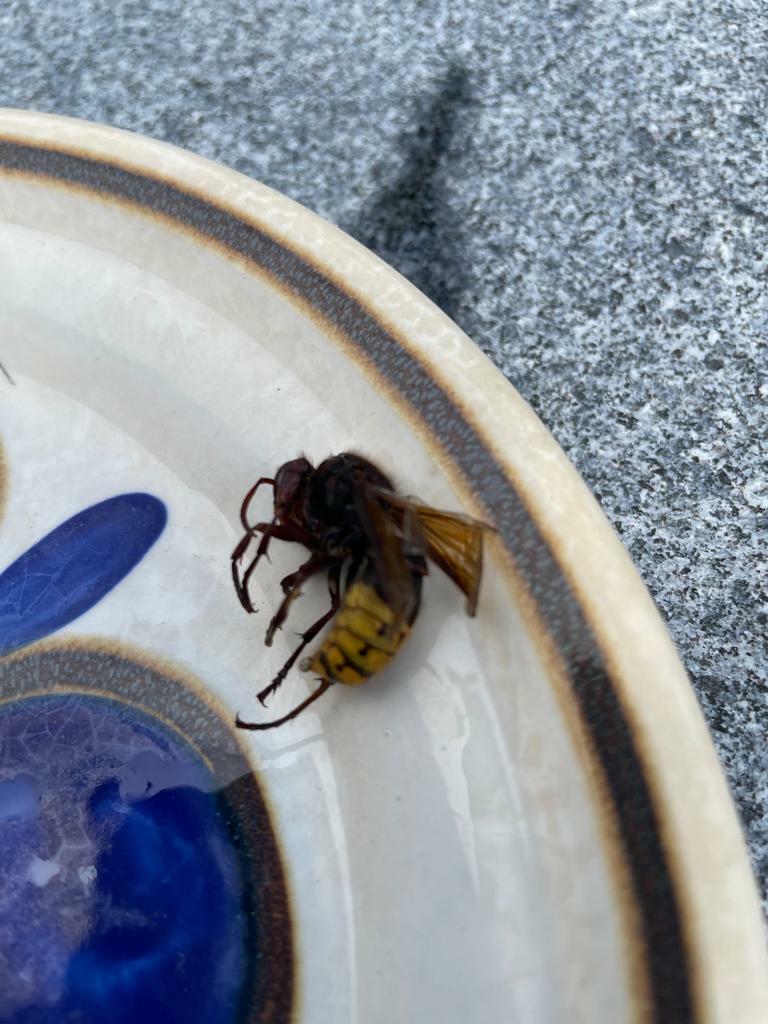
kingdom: Animalia
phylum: Arthropoda
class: Insecta
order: Hymenoptera
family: Vespidae
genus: Vespa
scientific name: Vespa crabro
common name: Hornet
